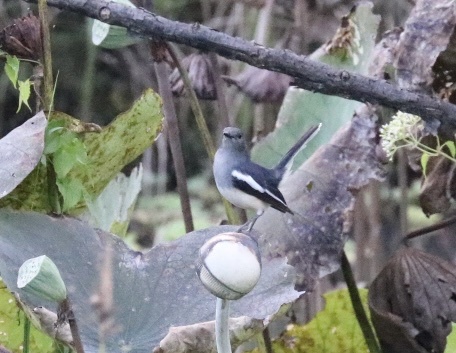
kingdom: Animalia
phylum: Chordata
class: Aves
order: Passeriformes
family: Muscicapidae
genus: Copsychus
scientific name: Copsychus saularis
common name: Oriental magpie-robin
